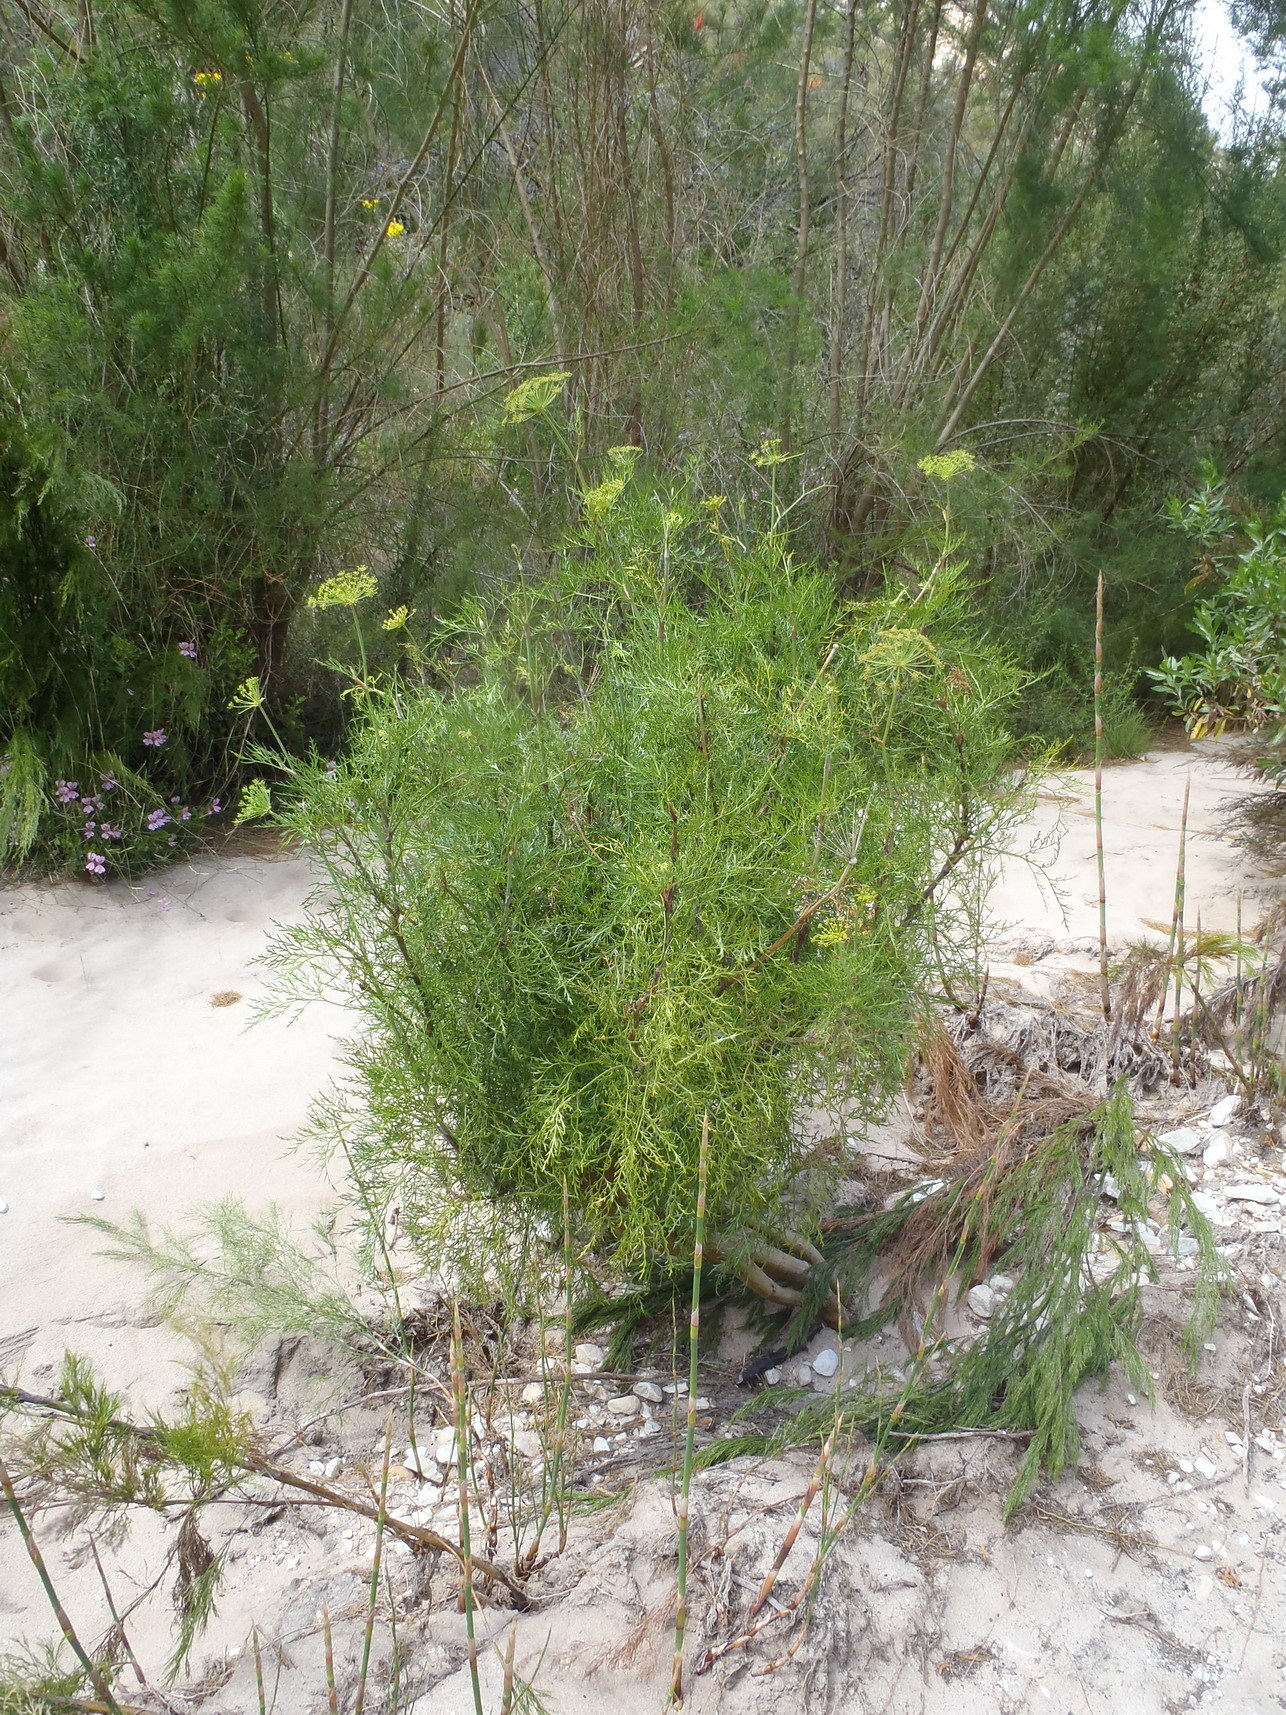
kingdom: Plantae
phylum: Tracheophyta
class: Magnoliopsida
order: Apiales
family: Apiaceae
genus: Notobubon
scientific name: Notobubon tenuifolium
